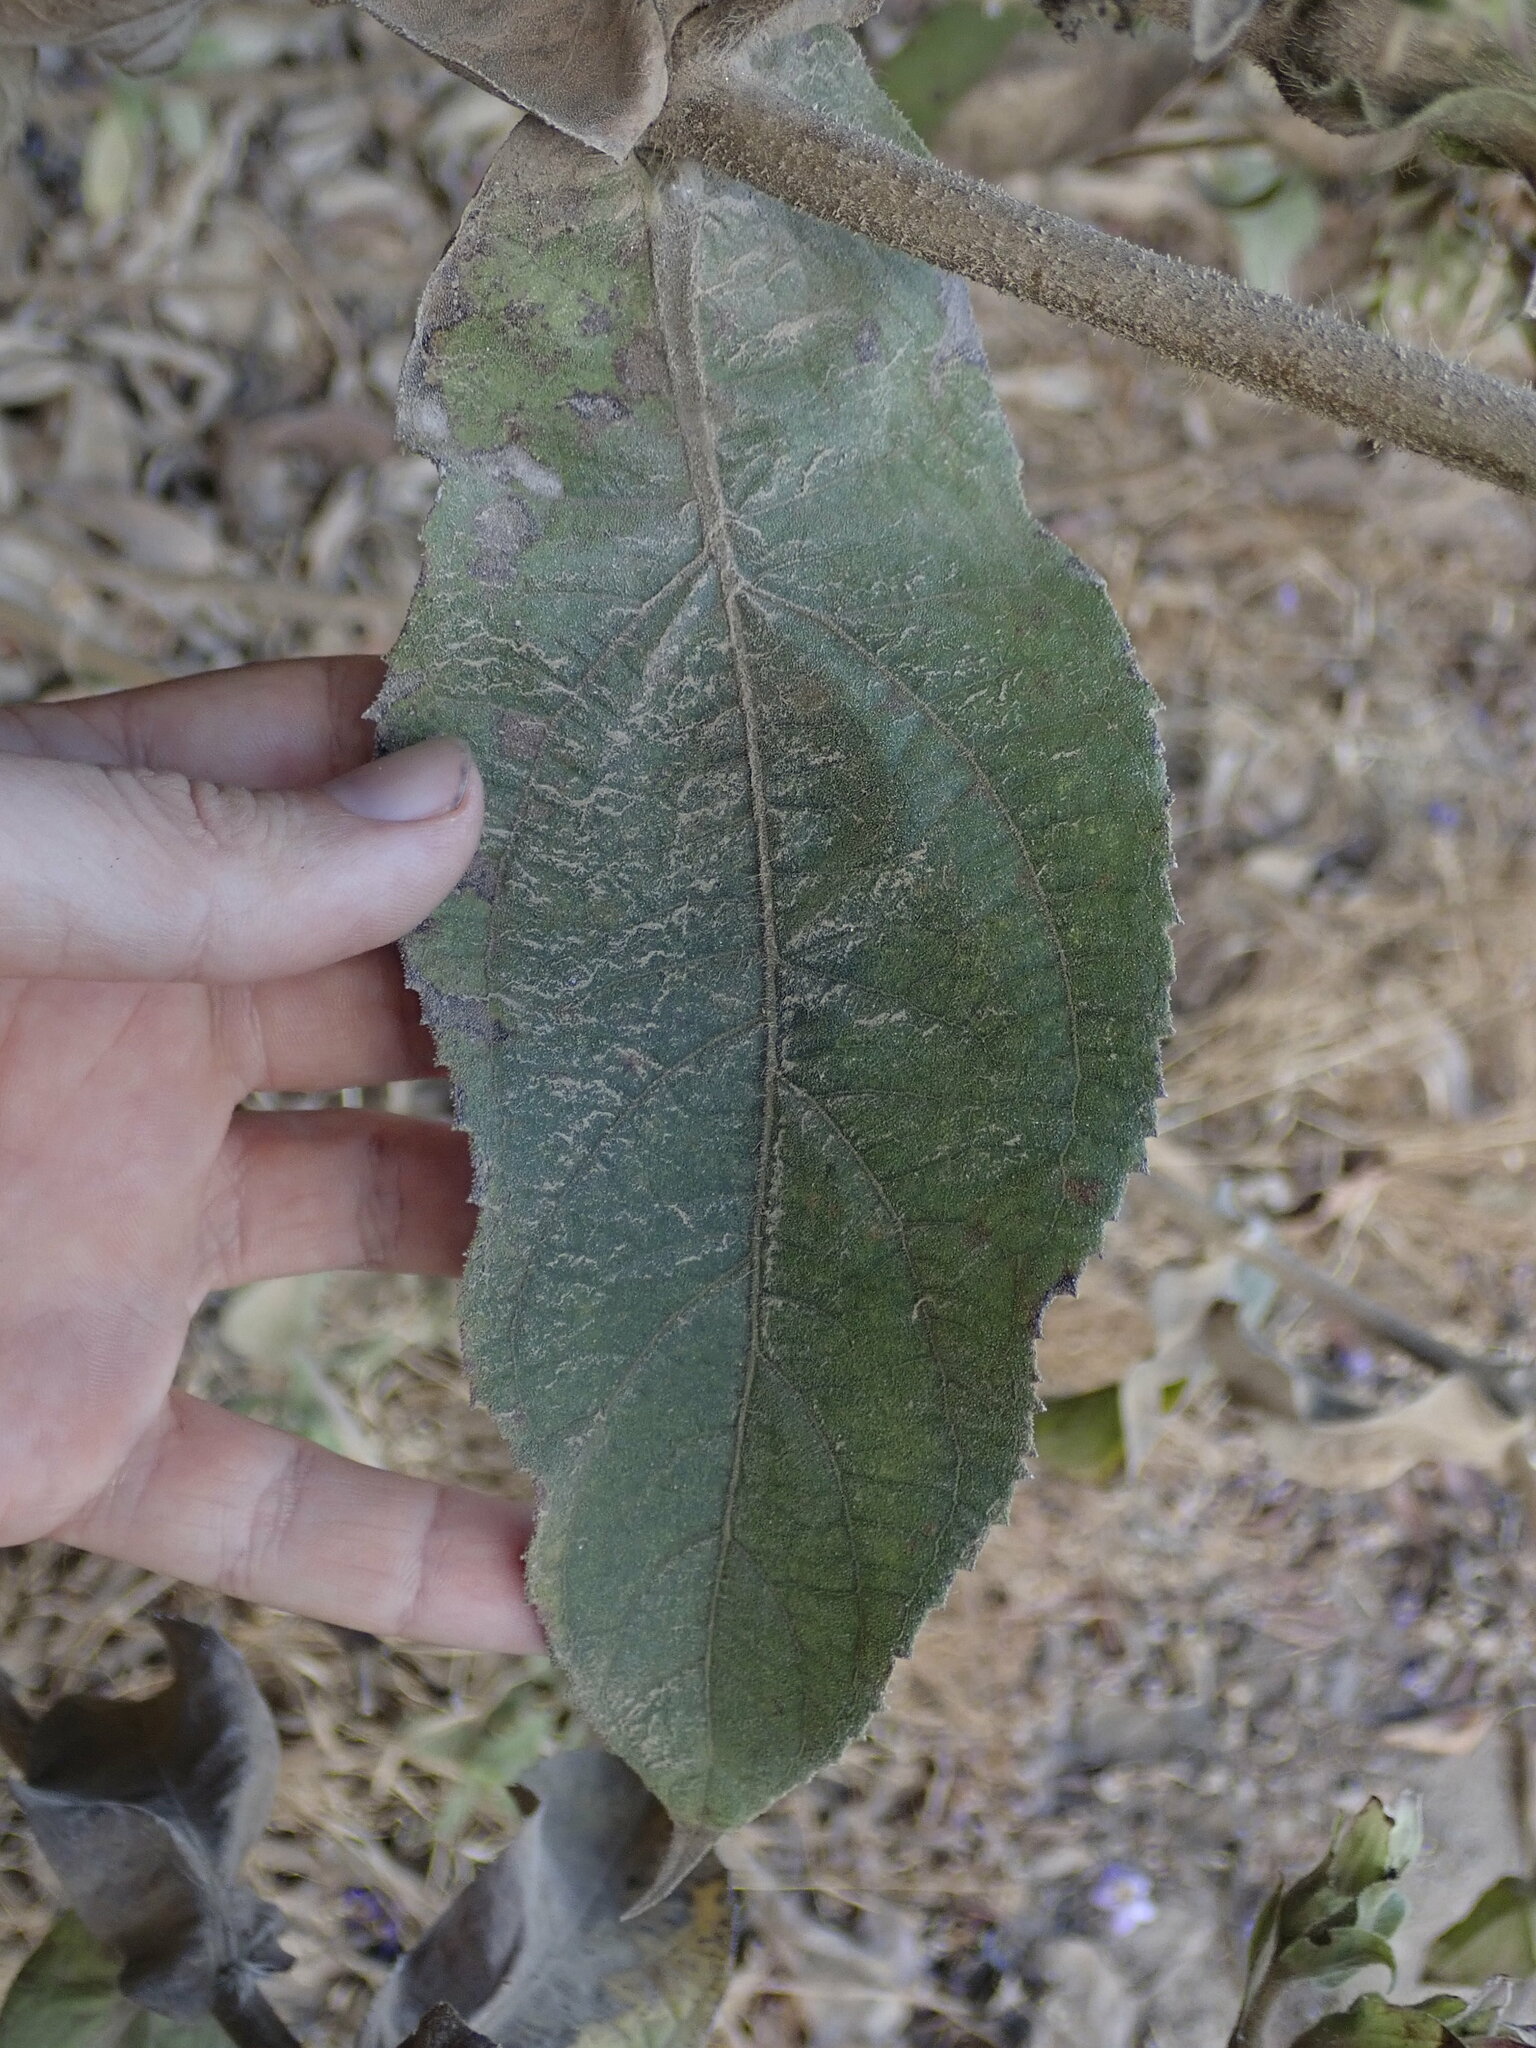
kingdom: Plantae
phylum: Tracheophyta
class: Magnoliopsida
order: Asterales
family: Asteraceae
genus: Lagascea
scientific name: Lagascea helianthifolia
